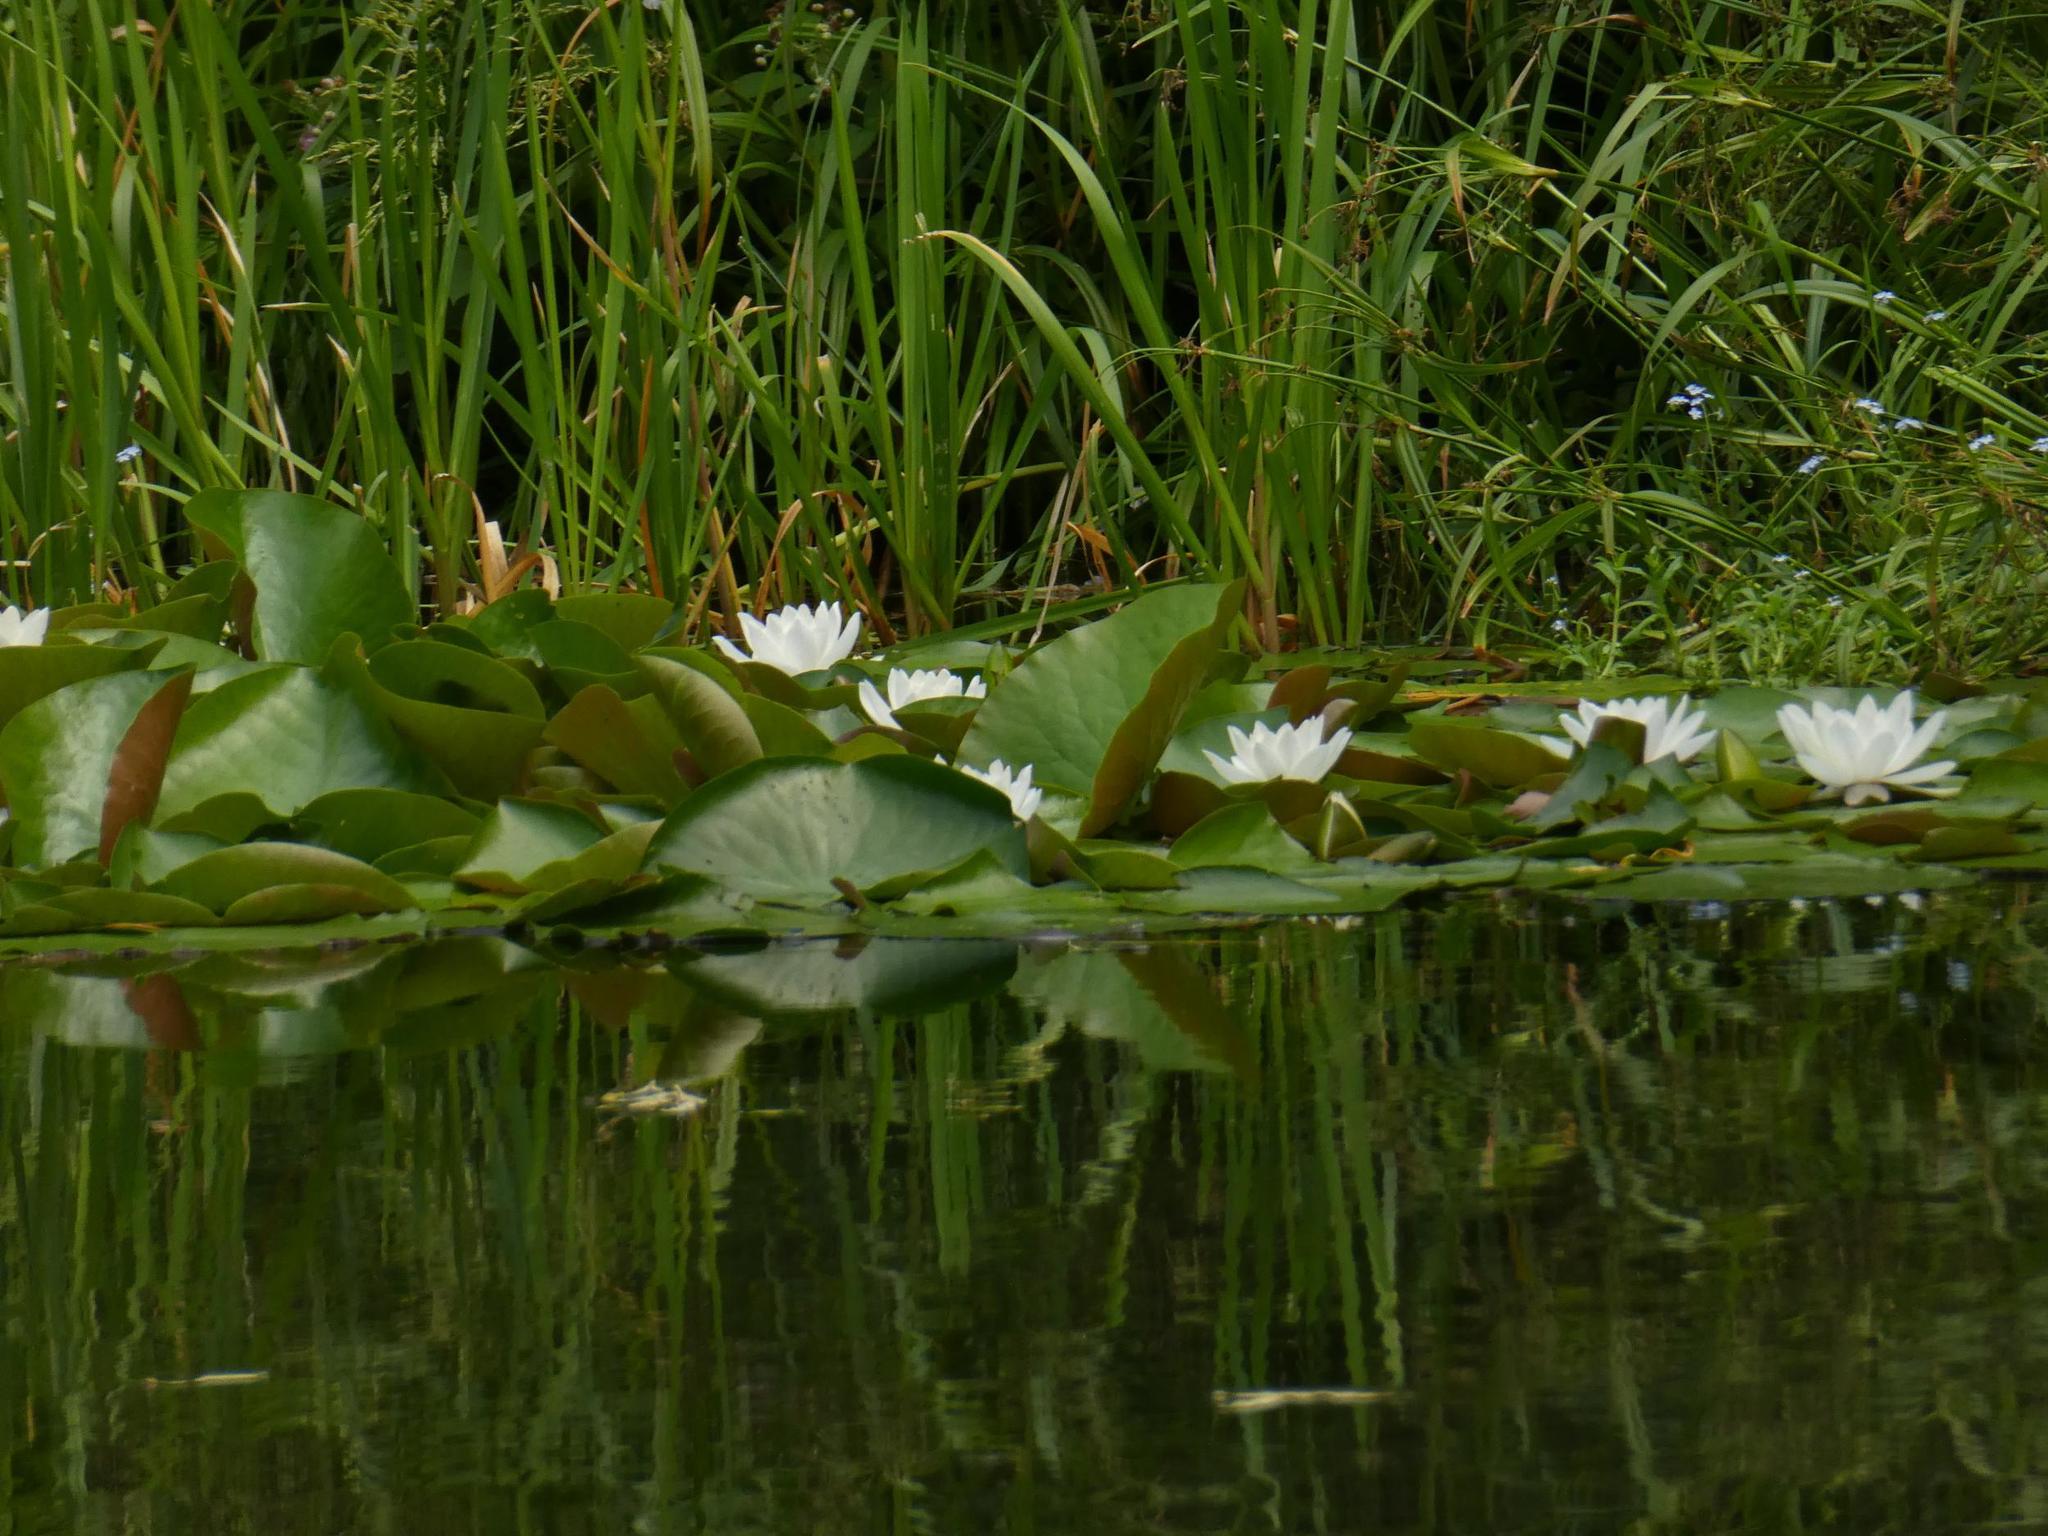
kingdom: Plantae
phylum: Tracheophyta
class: Magnoliopsida
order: Nymphaeales
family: Nymphaeaceae
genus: Nymphaea
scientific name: Nymphaea alba
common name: White water-lily
